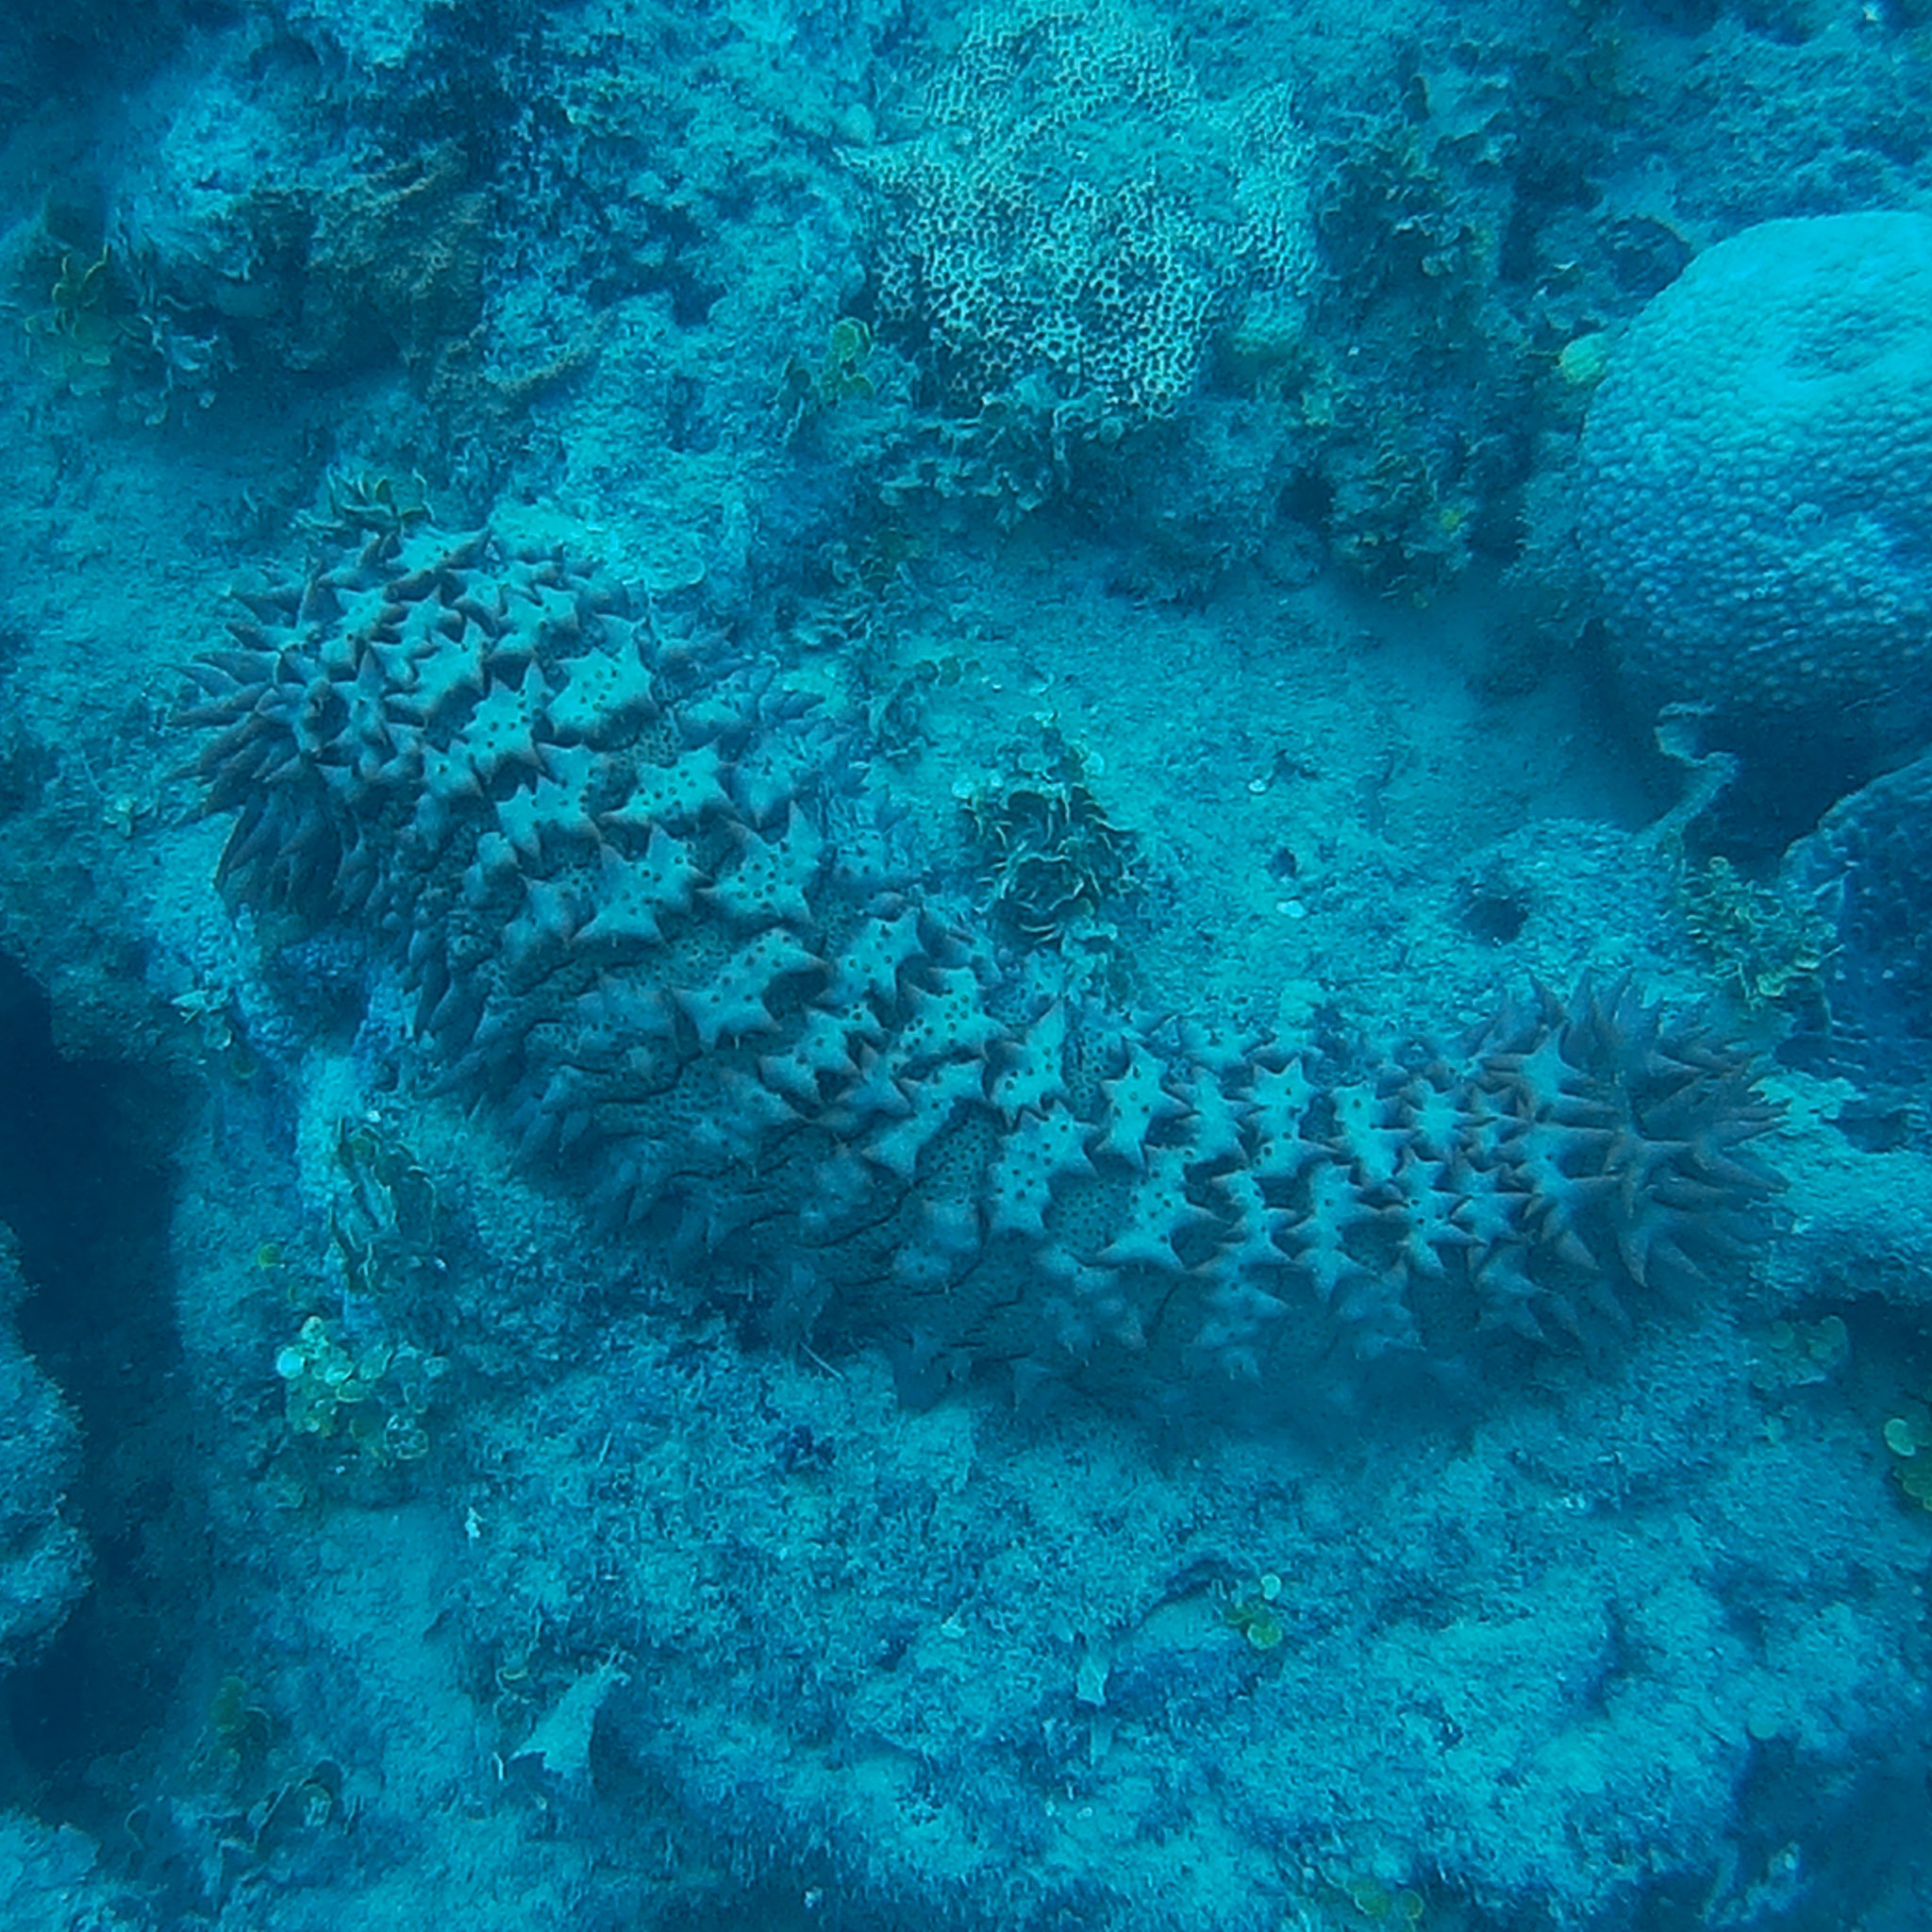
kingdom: Animalia
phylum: Echinodermata
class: Holothuroidea
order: Synallactida
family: Stichopodidae
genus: Thelenota
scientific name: Thelenota ananas
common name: Prickly redfish
